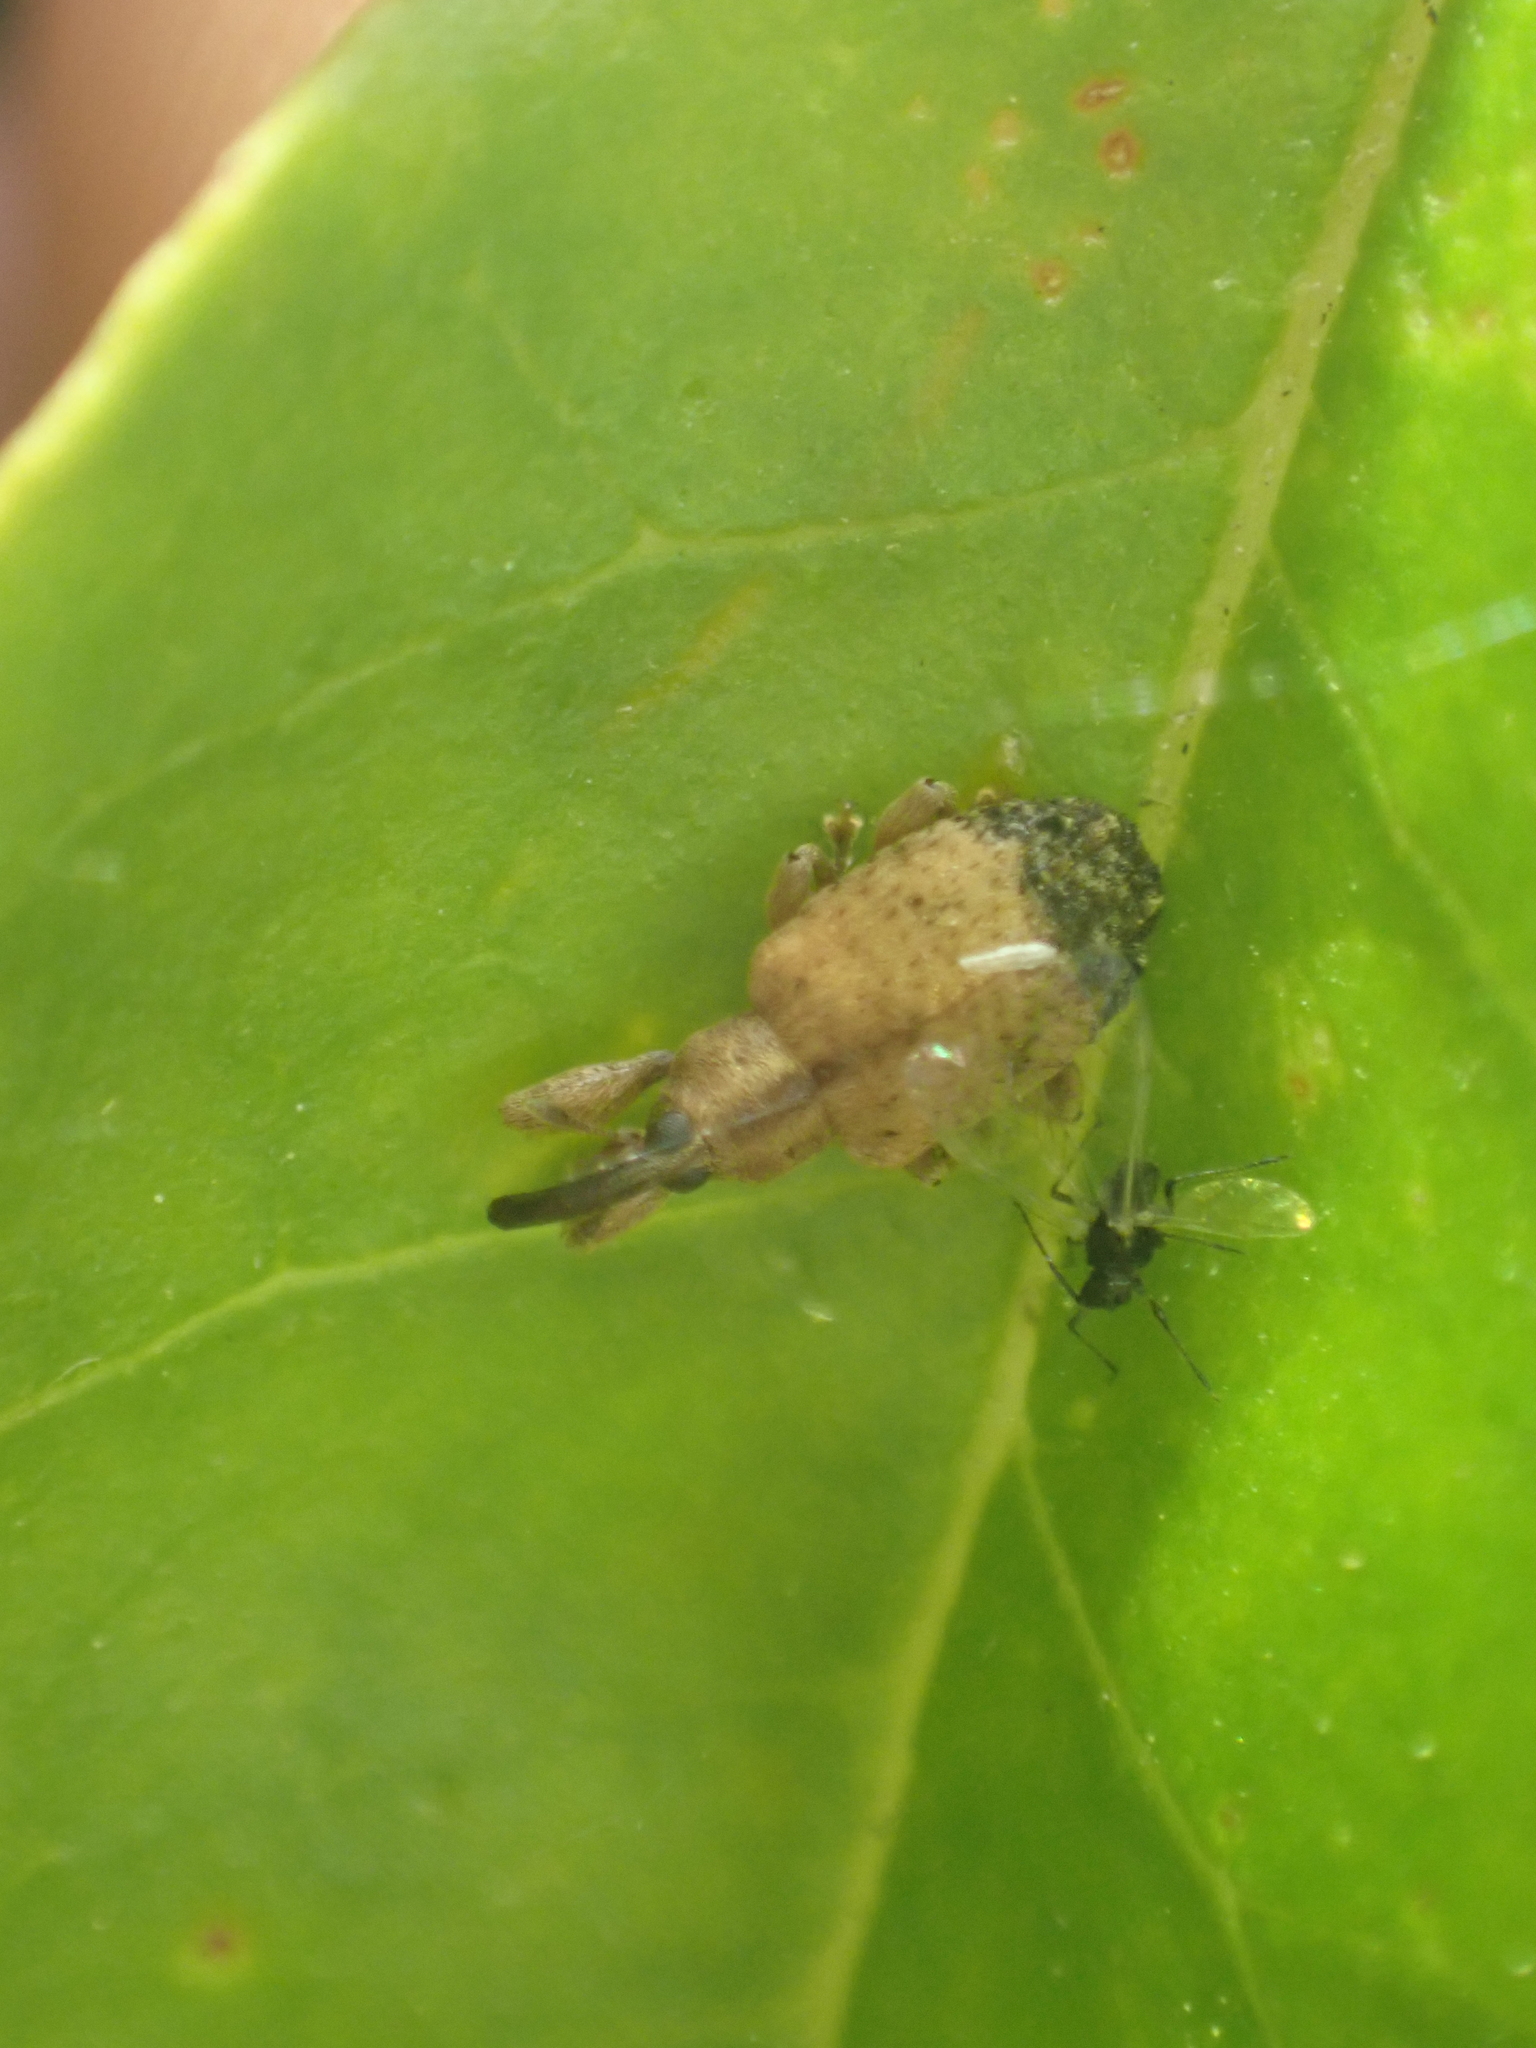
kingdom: Animalia
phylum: Arthropoda
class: Insecta
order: Coleoptera
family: Curculionidae
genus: Ochyromera
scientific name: Ochyromera ligustri
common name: Weevil
